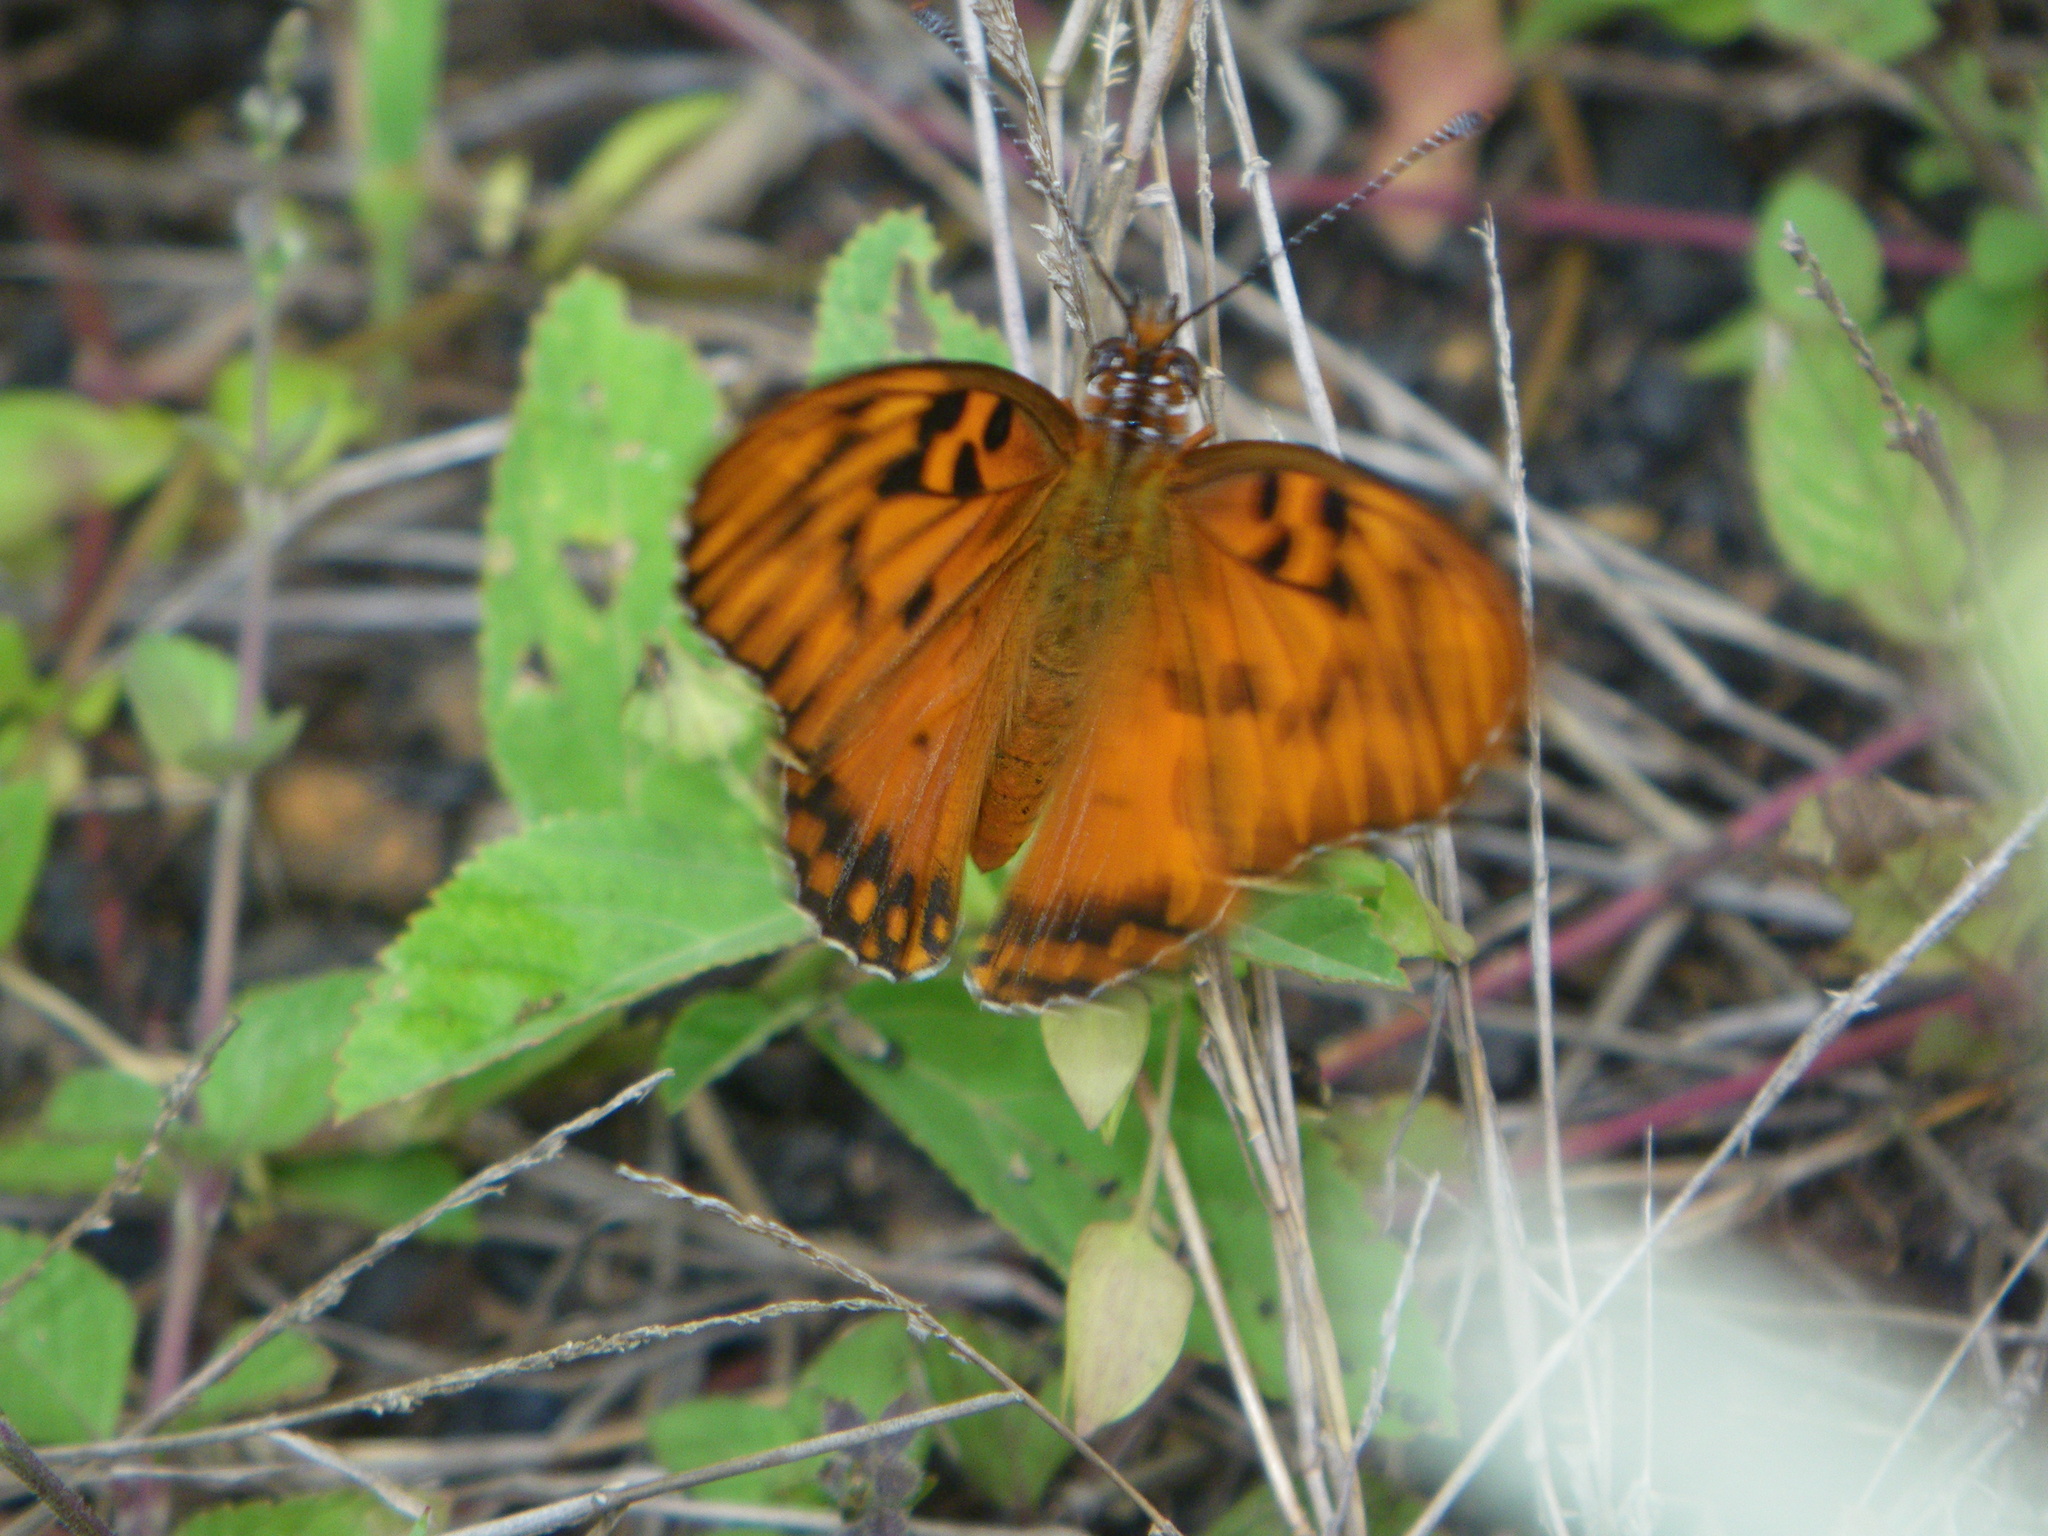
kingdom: Animalia
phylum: Arthropoda
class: Insecta
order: Lepidoptera
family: Nymphalidae
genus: Dione
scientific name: Dione vanillae
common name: Gulf fritillary
